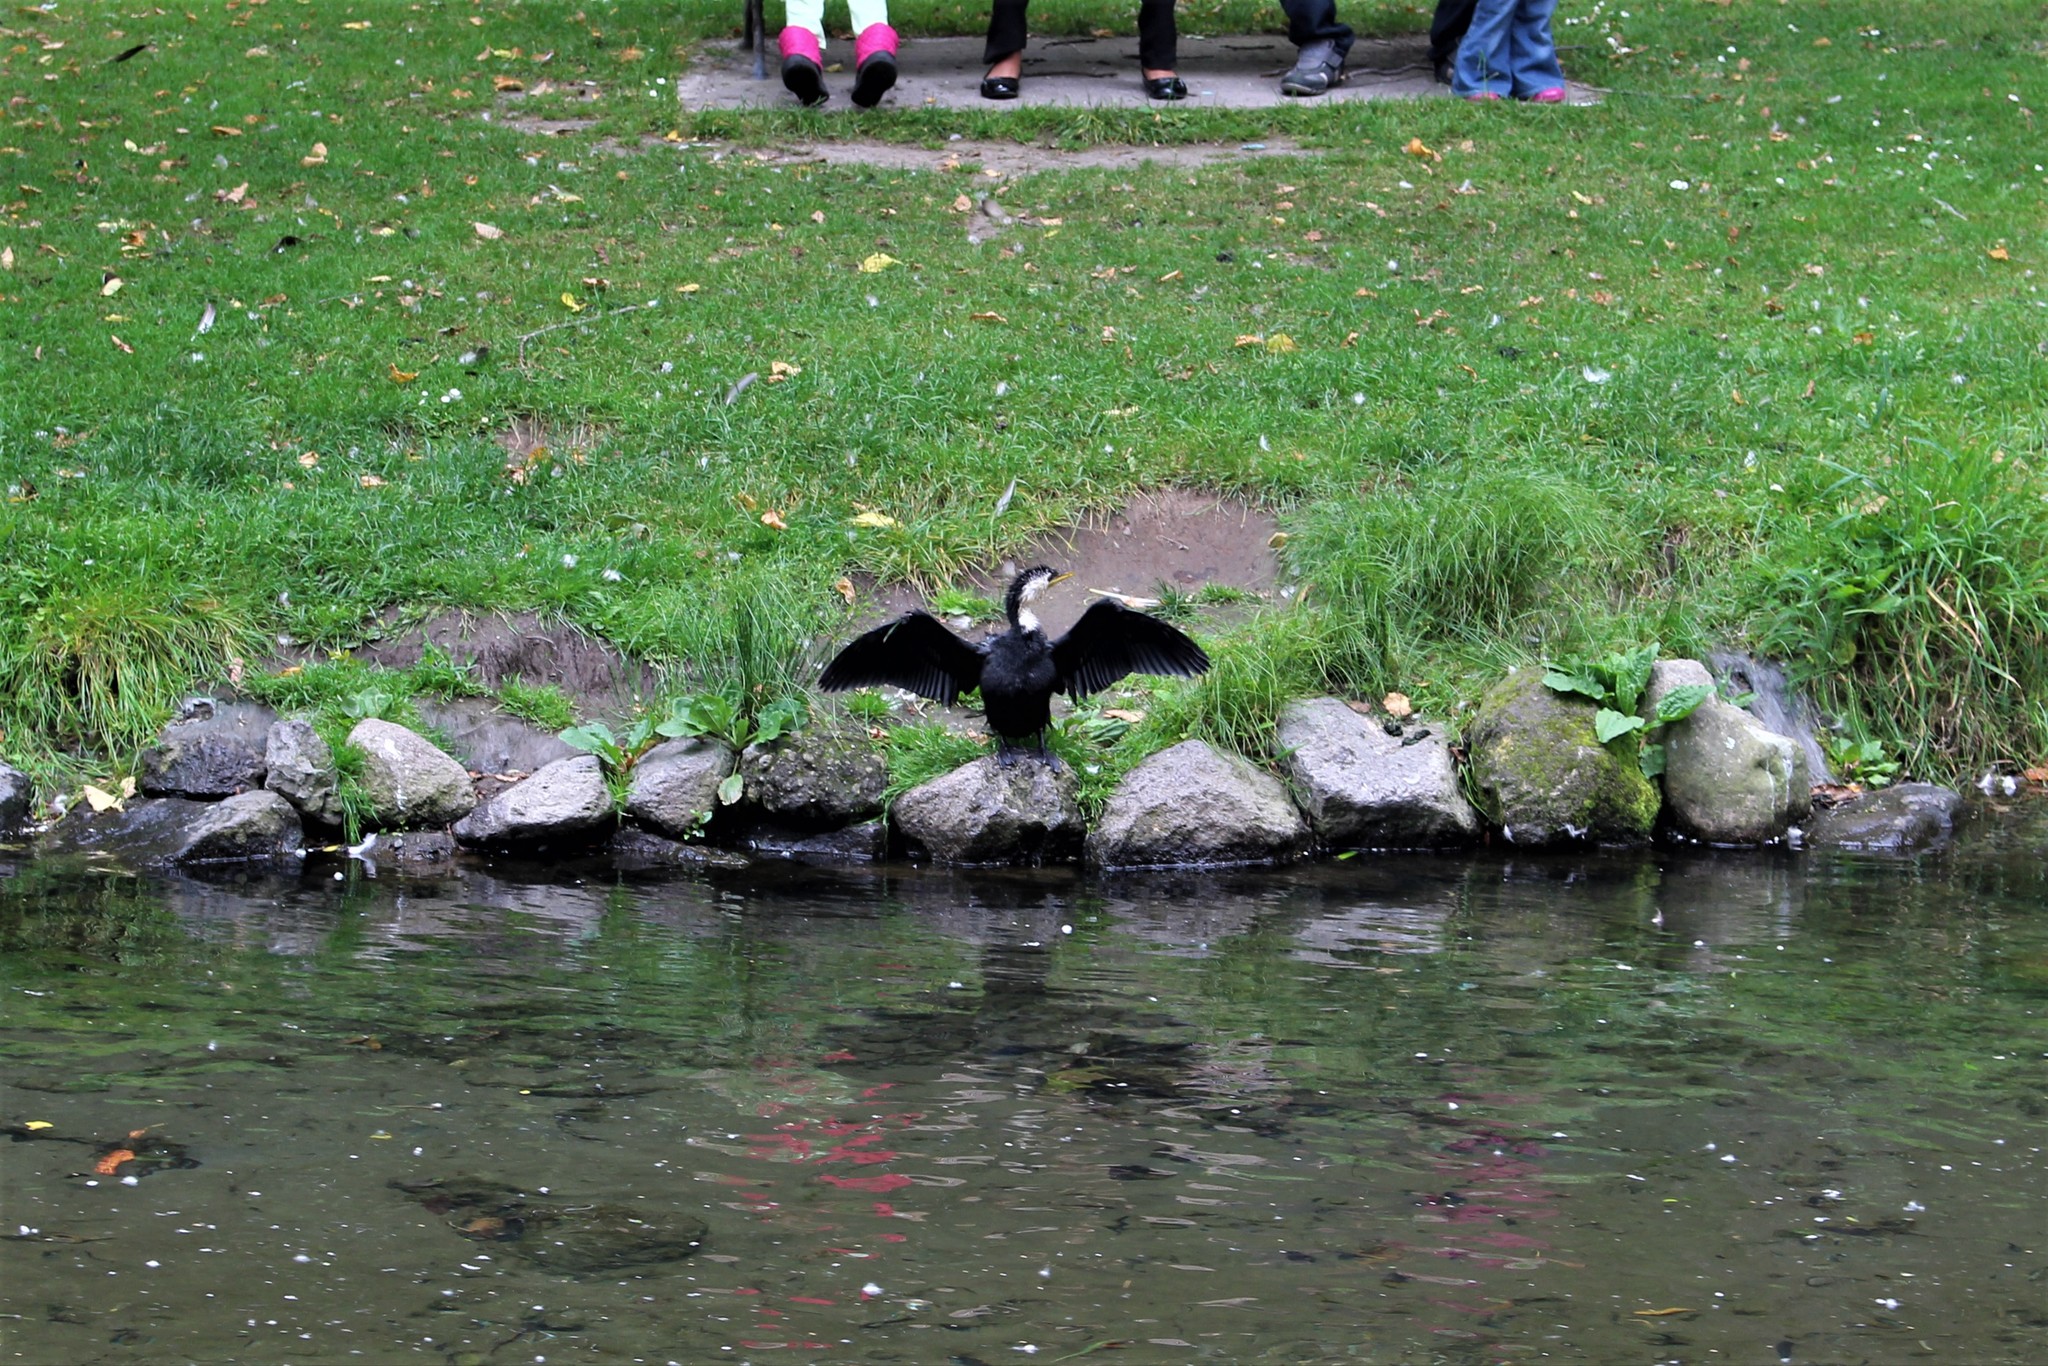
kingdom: Animalia
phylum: Chordata
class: Aves
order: Suliformes
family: Phalacrocoracidae
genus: Microcarbo
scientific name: Microcarbo melanoleucos
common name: Little pied cormorant
